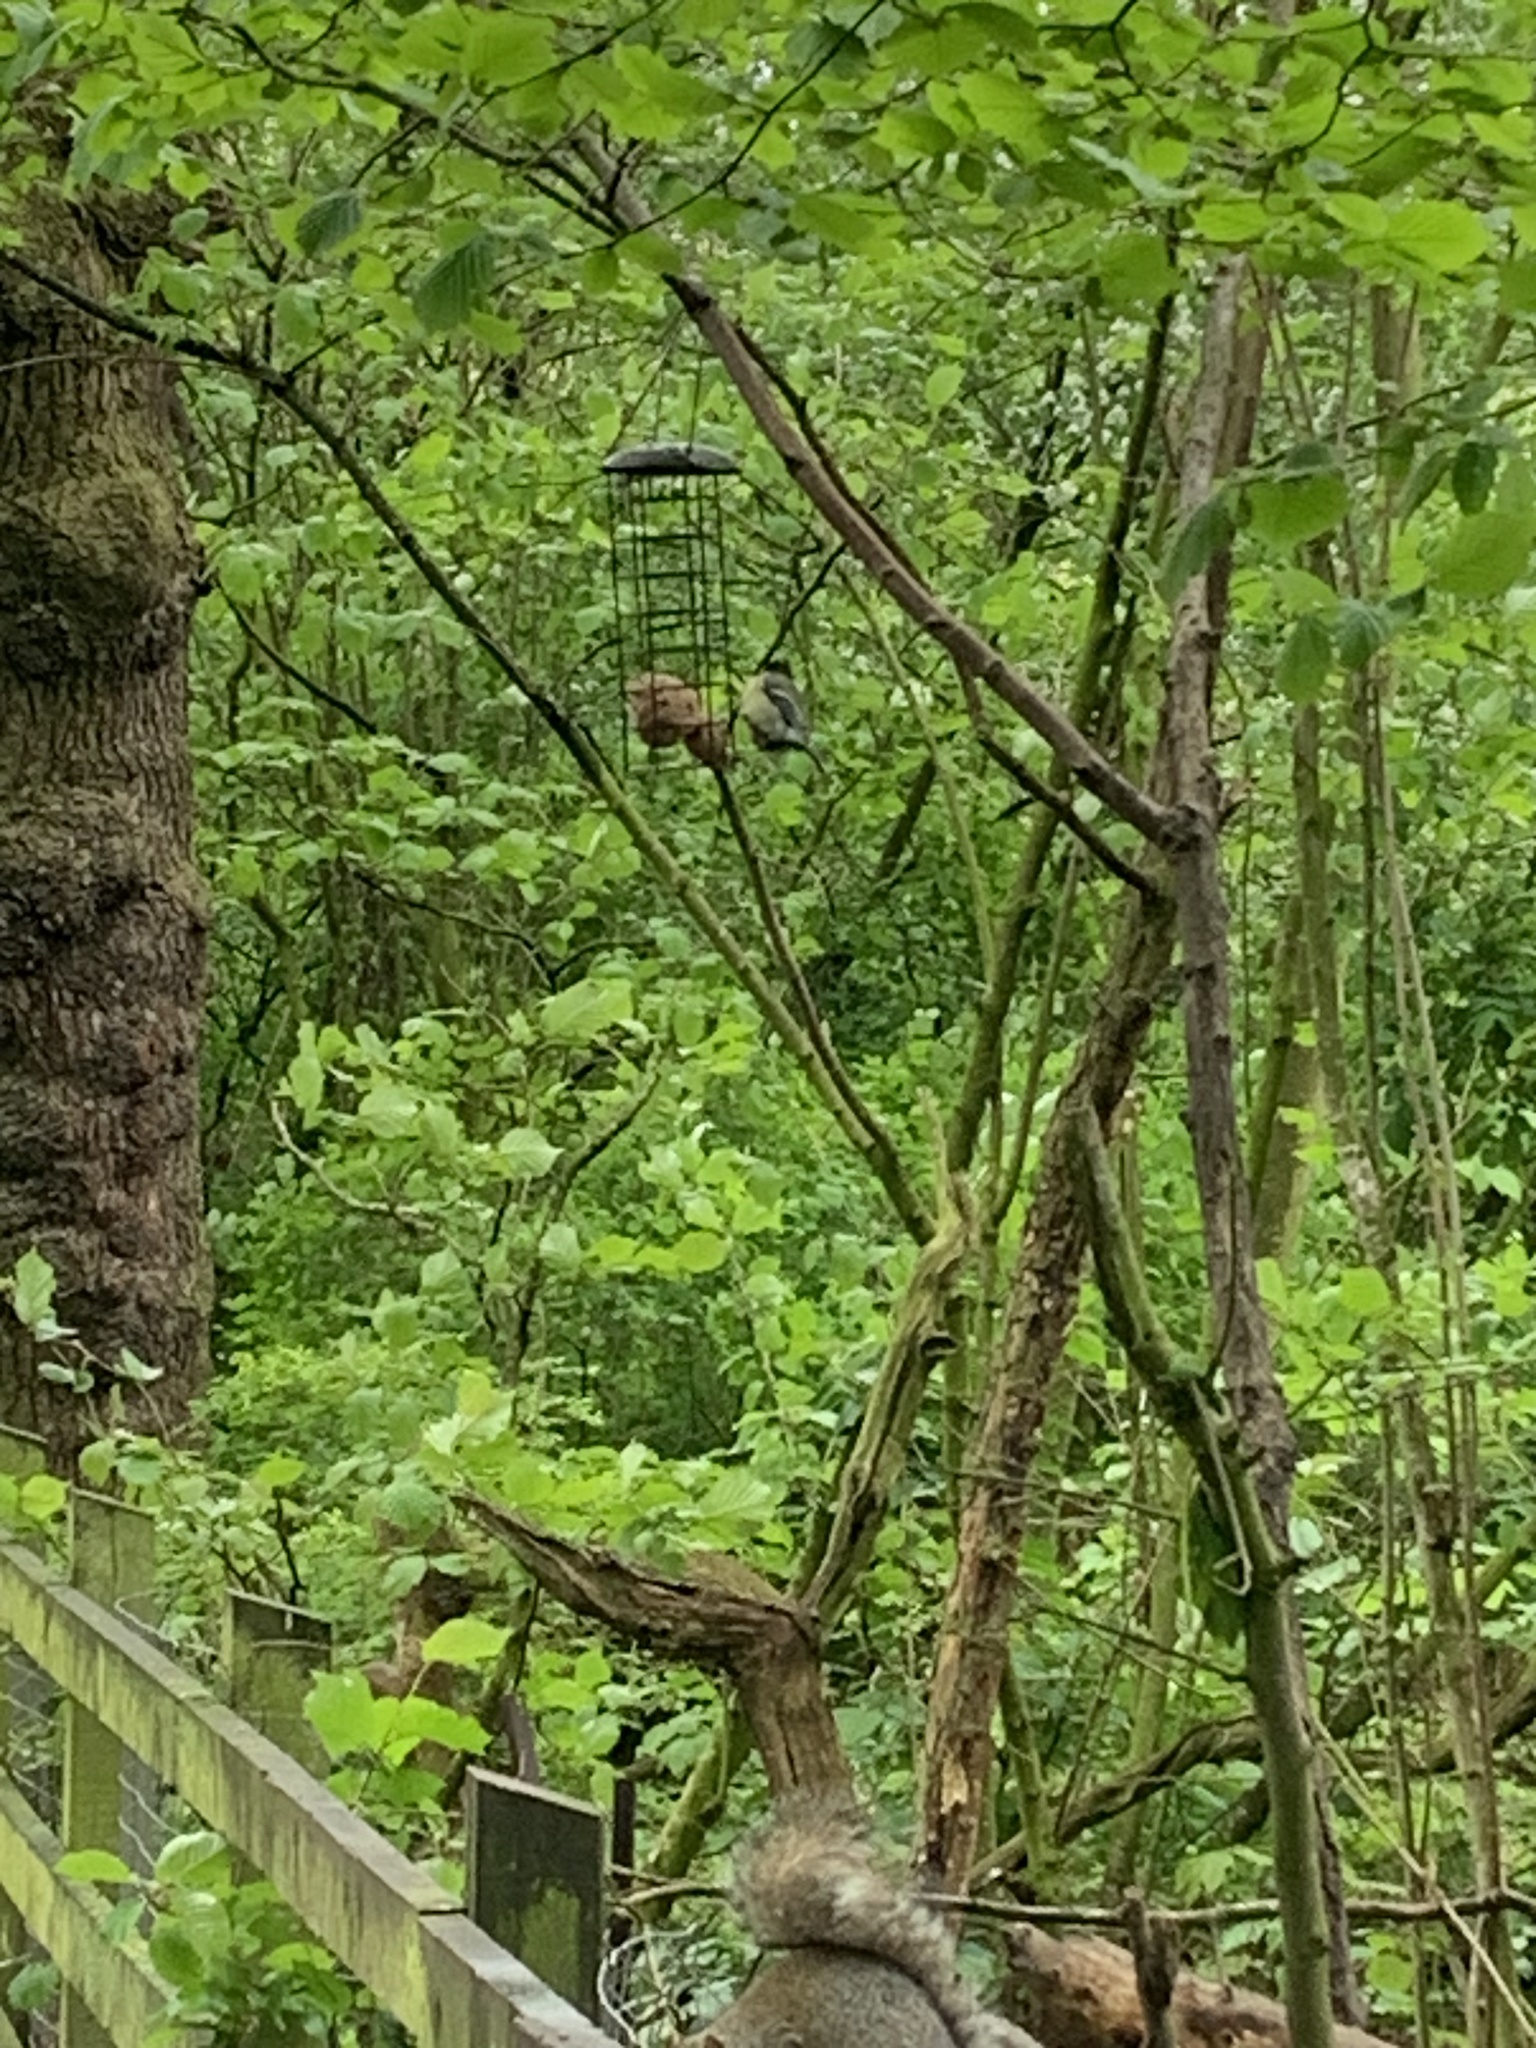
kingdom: Animalia
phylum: Chordata
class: Aves
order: Passeriformes
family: Paridae
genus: Parus
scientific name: Parus major
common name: Great tit
